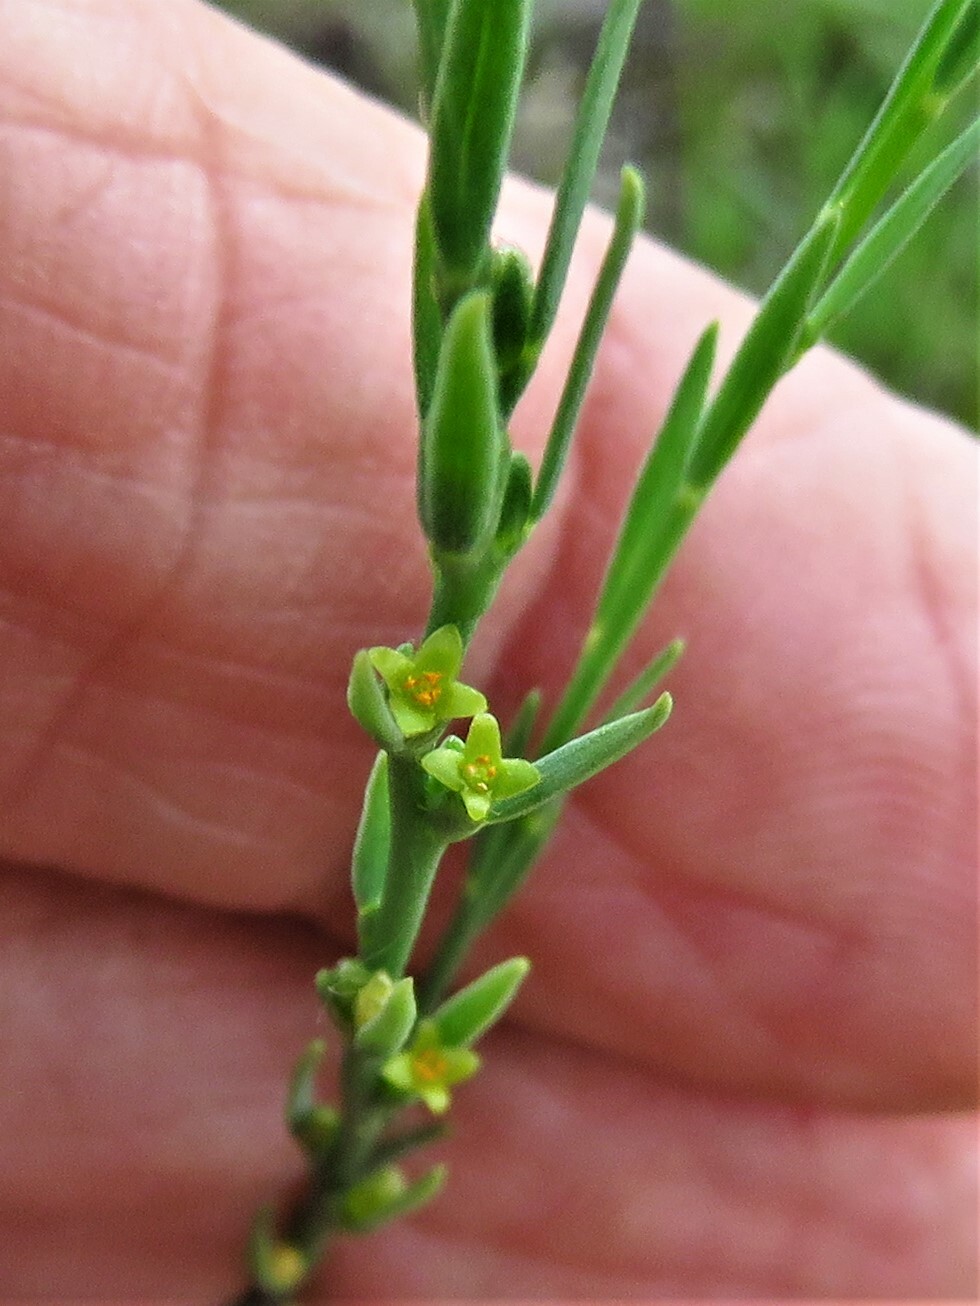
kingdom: Plantae
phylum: Tracheophyta
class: Magnoliopsida
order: Malvales
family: Thymelaeaceae
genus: Thymelaea
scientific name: Thymelaea passerina
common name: Annual thymelaea
